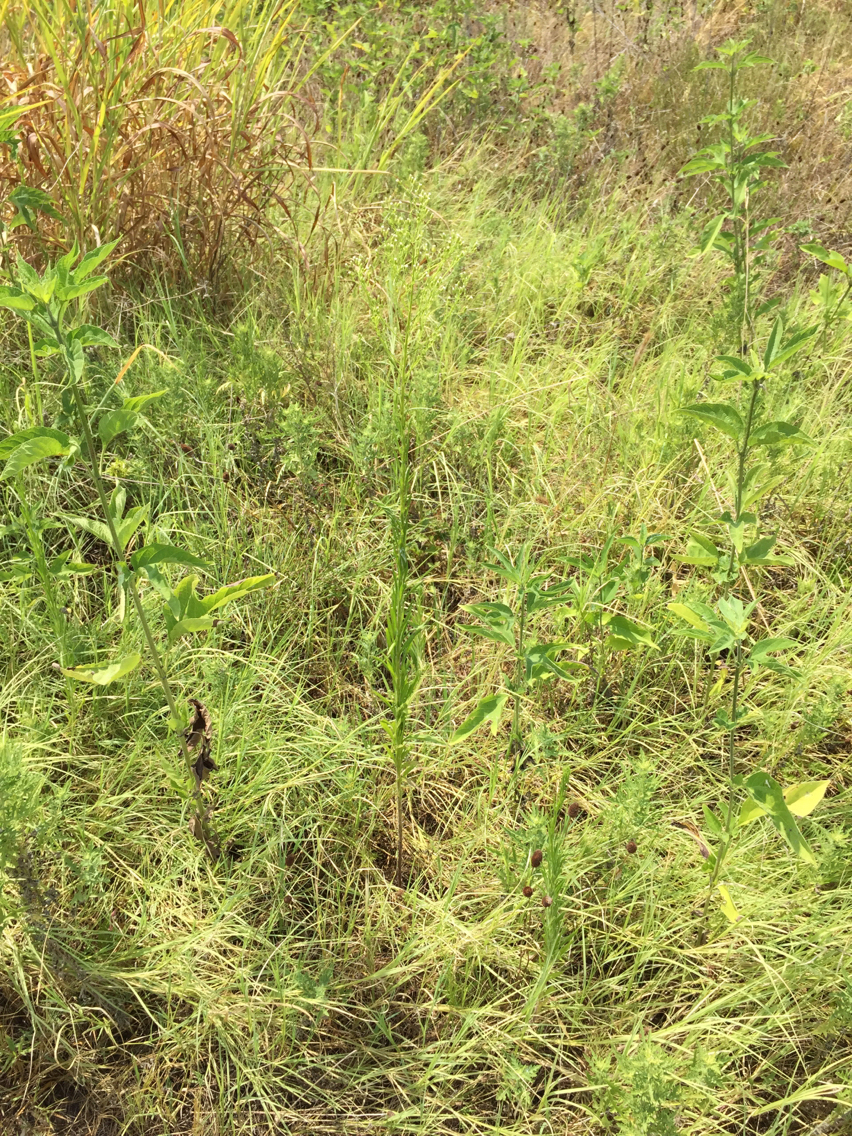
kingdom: Plantae
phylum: Tracheophyta
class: Magnoliopsida
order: Asterales
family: Asteraceae
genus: Erigeron
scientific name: Erigeron canadensis
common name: Canadian fleabane
